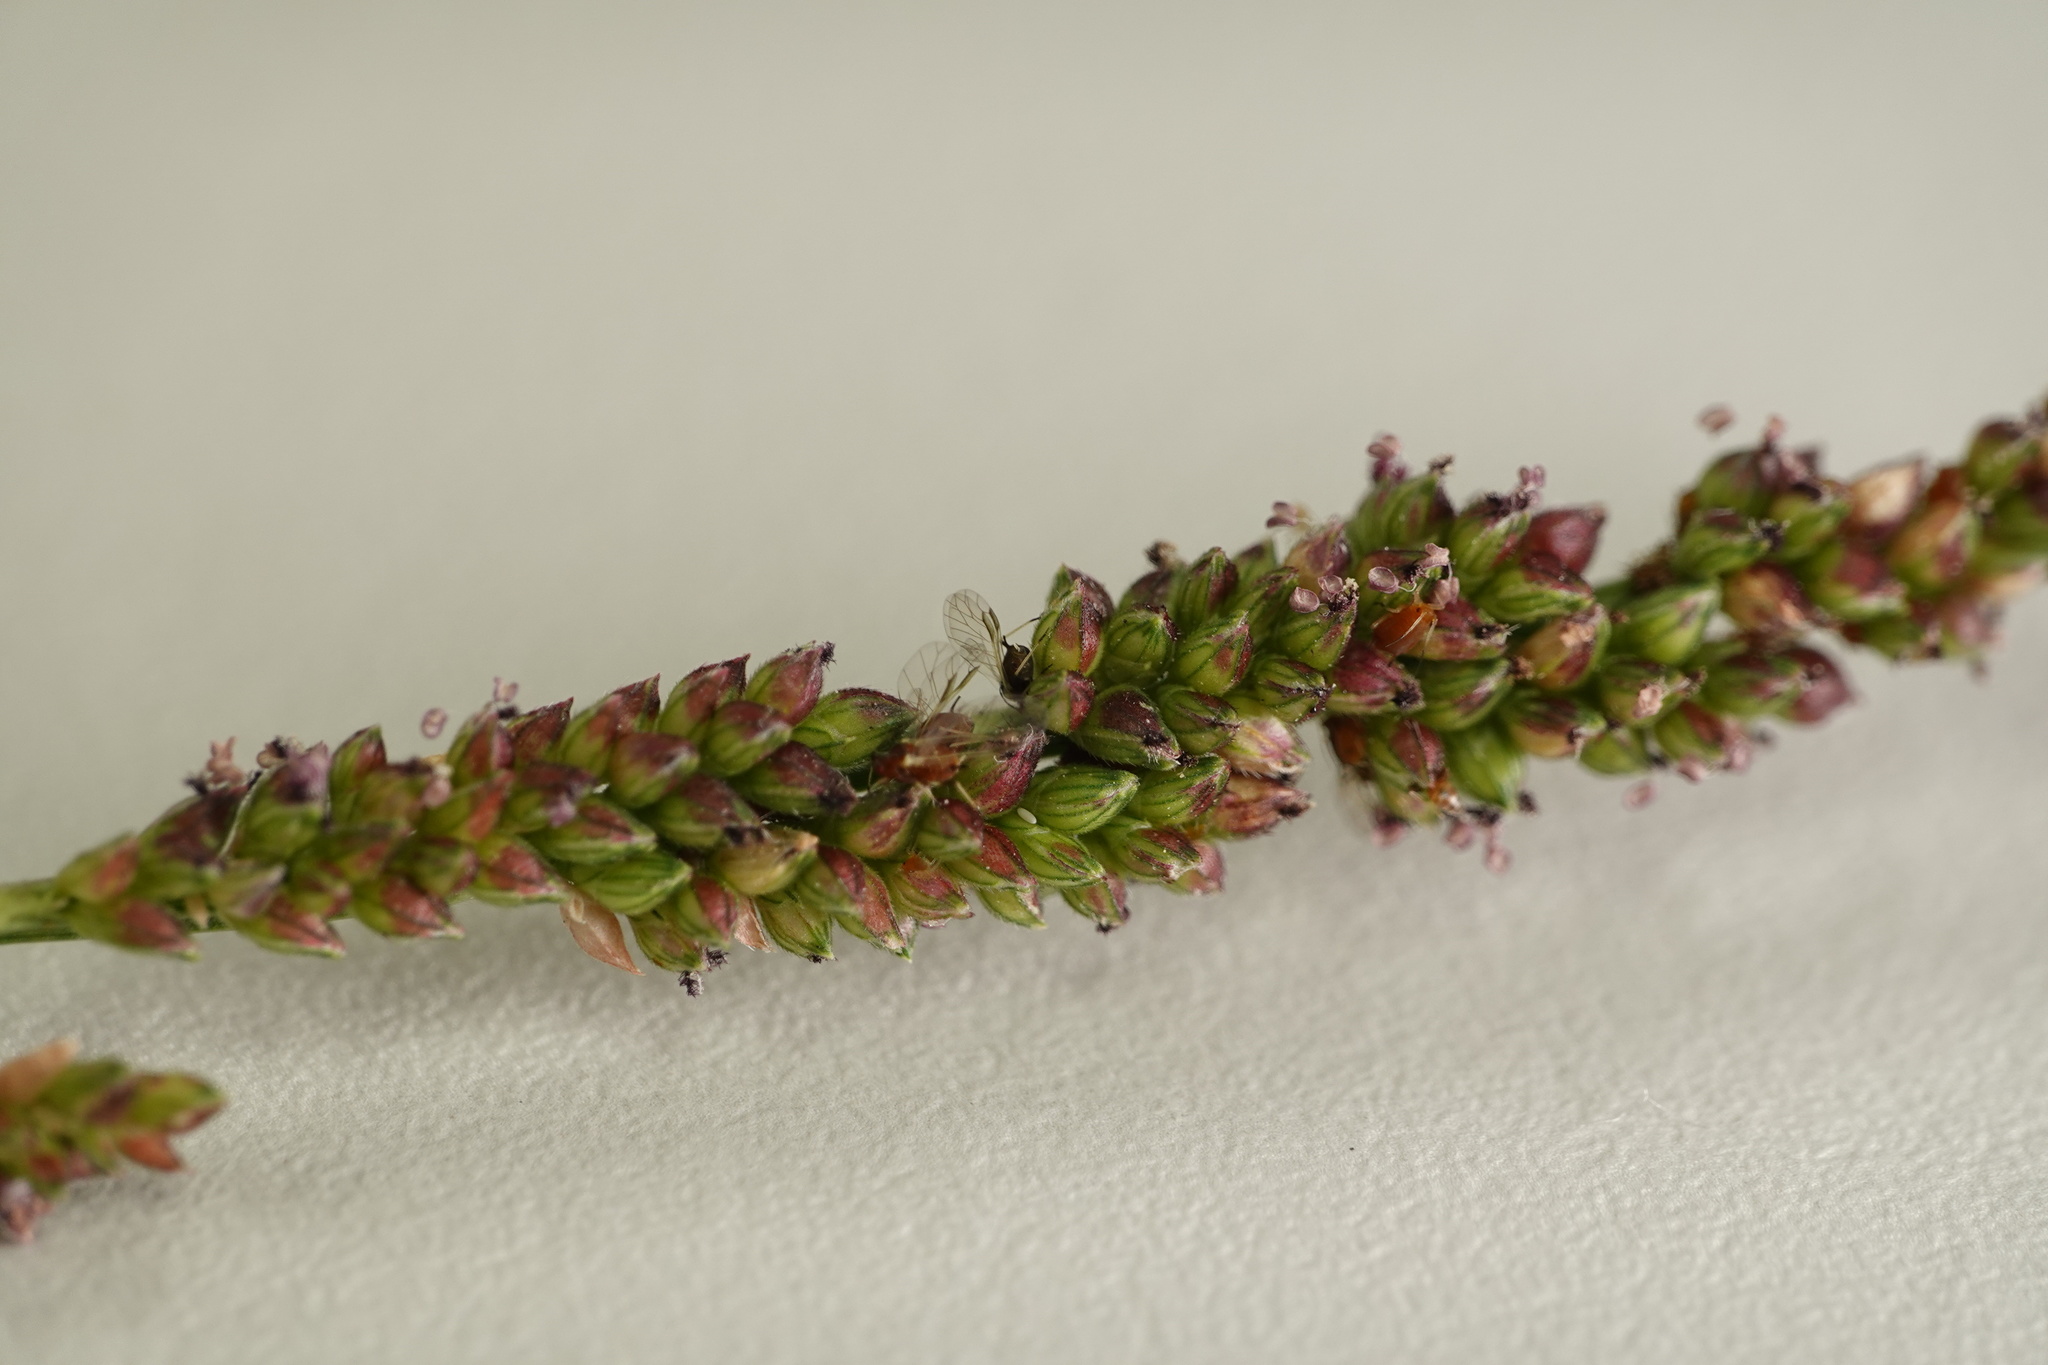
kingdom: Plantae
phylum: Tracheophyta
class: Liliopsida
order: Poales
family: Poaceae
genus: Echinochloa
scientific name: Echinochloa colonum
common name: Jungle rice
